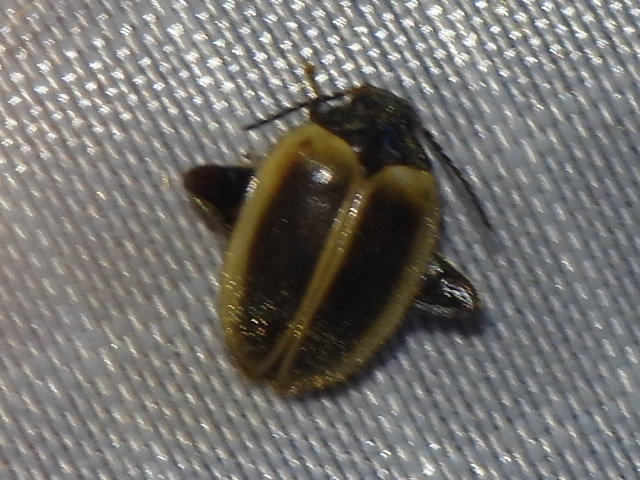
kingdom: Animalia
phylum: Arthropoda
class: Insecta
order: Coleoptera
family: Scirtidae
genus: Ora
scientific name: Ora discoidea
